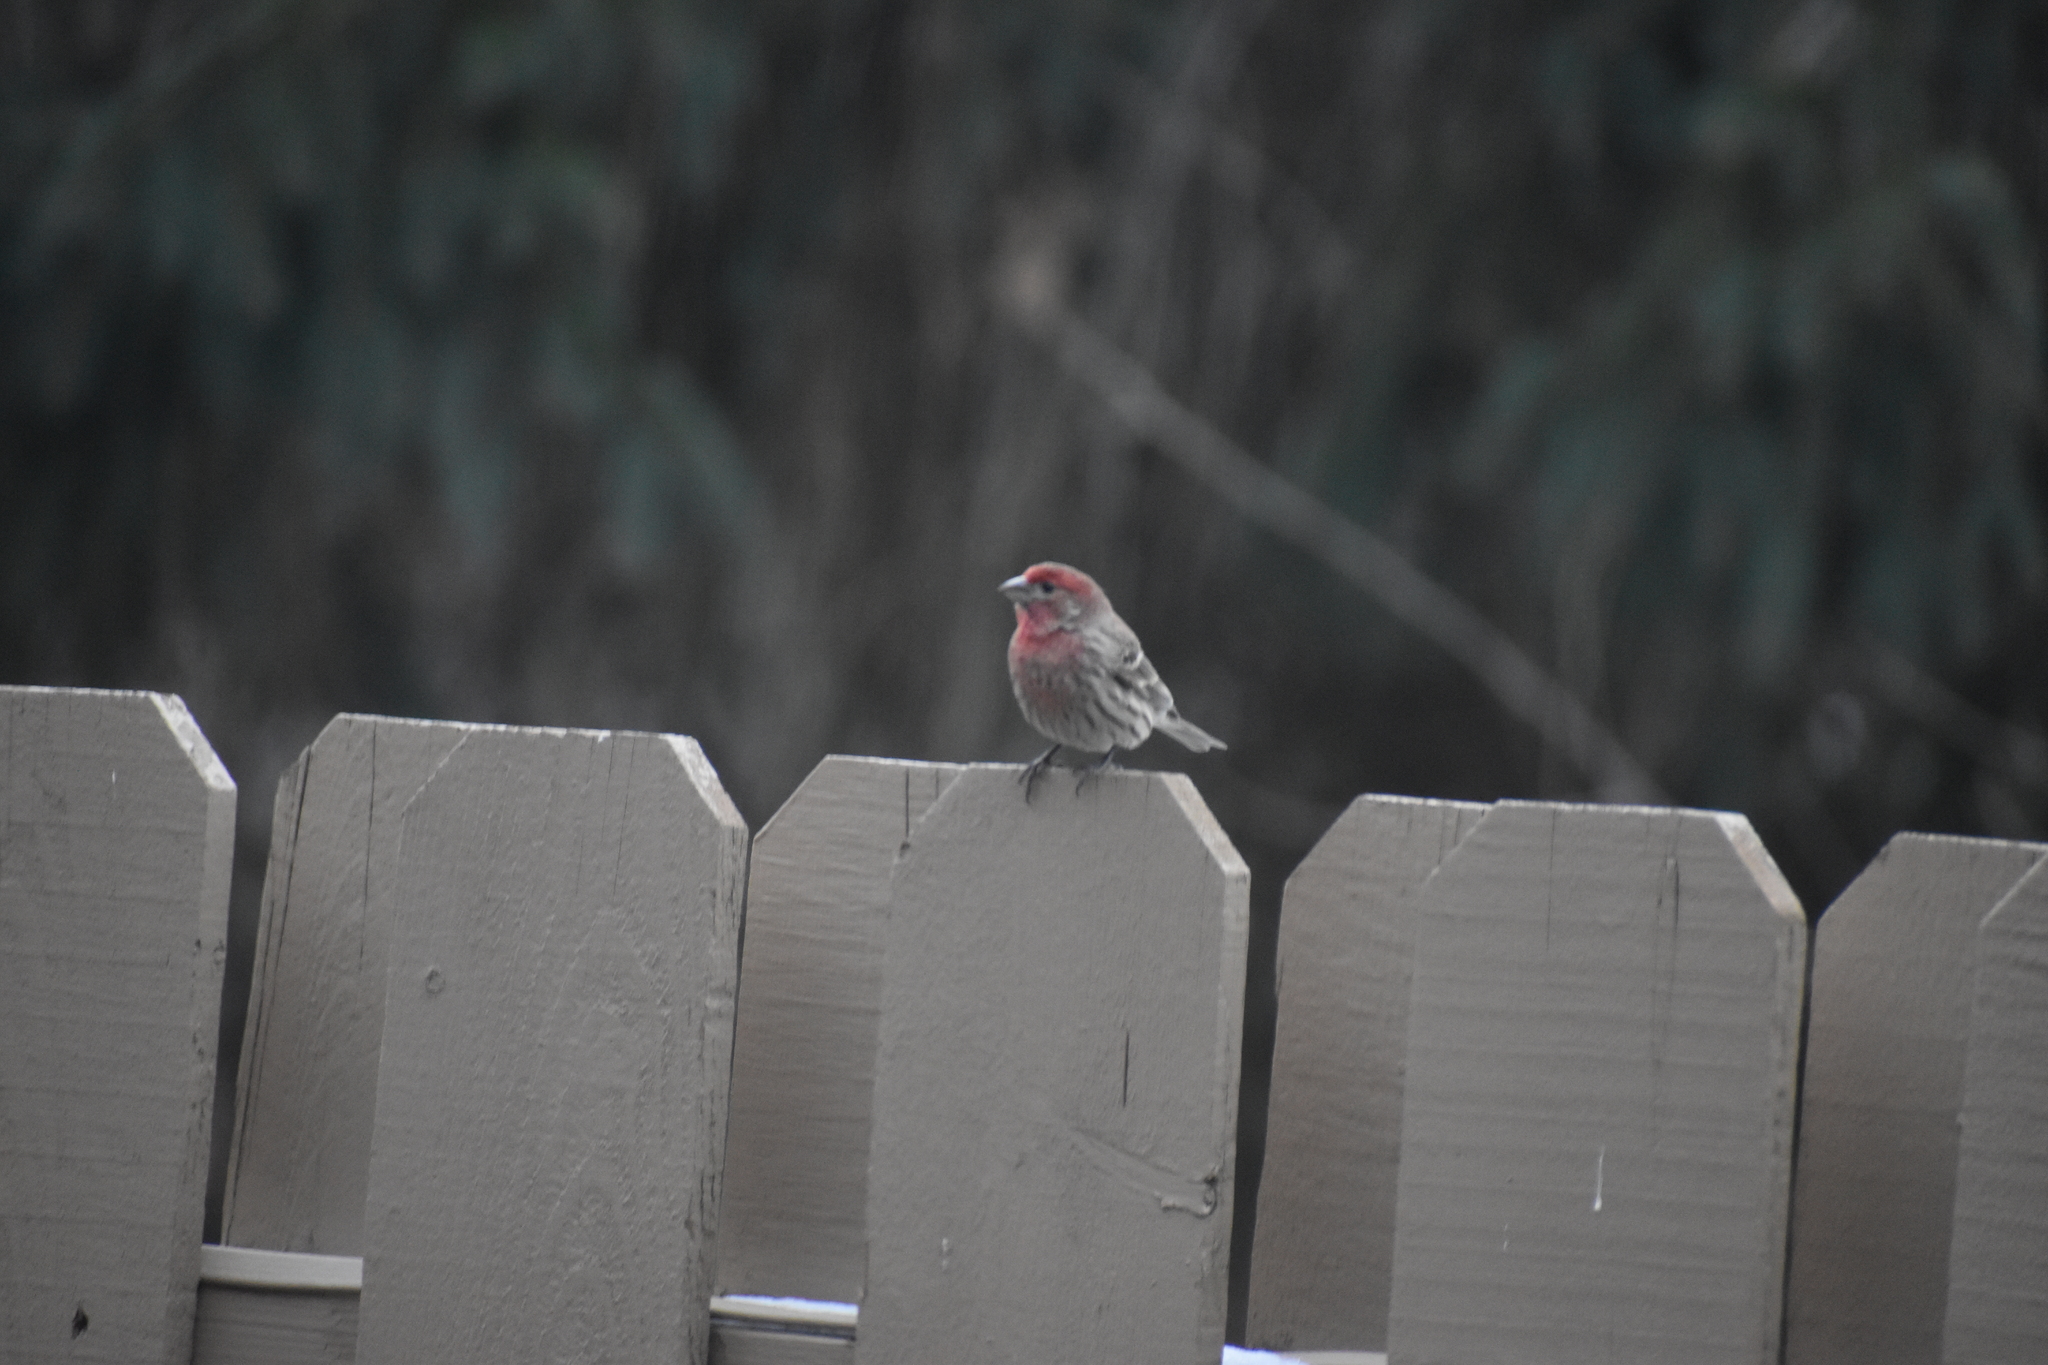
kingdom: Animalia
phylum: Chordata
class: Aves
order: Passeriformes
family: Fringillidae
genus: Haemorhous
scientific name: Haemorhous mexicanus
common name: House finch
